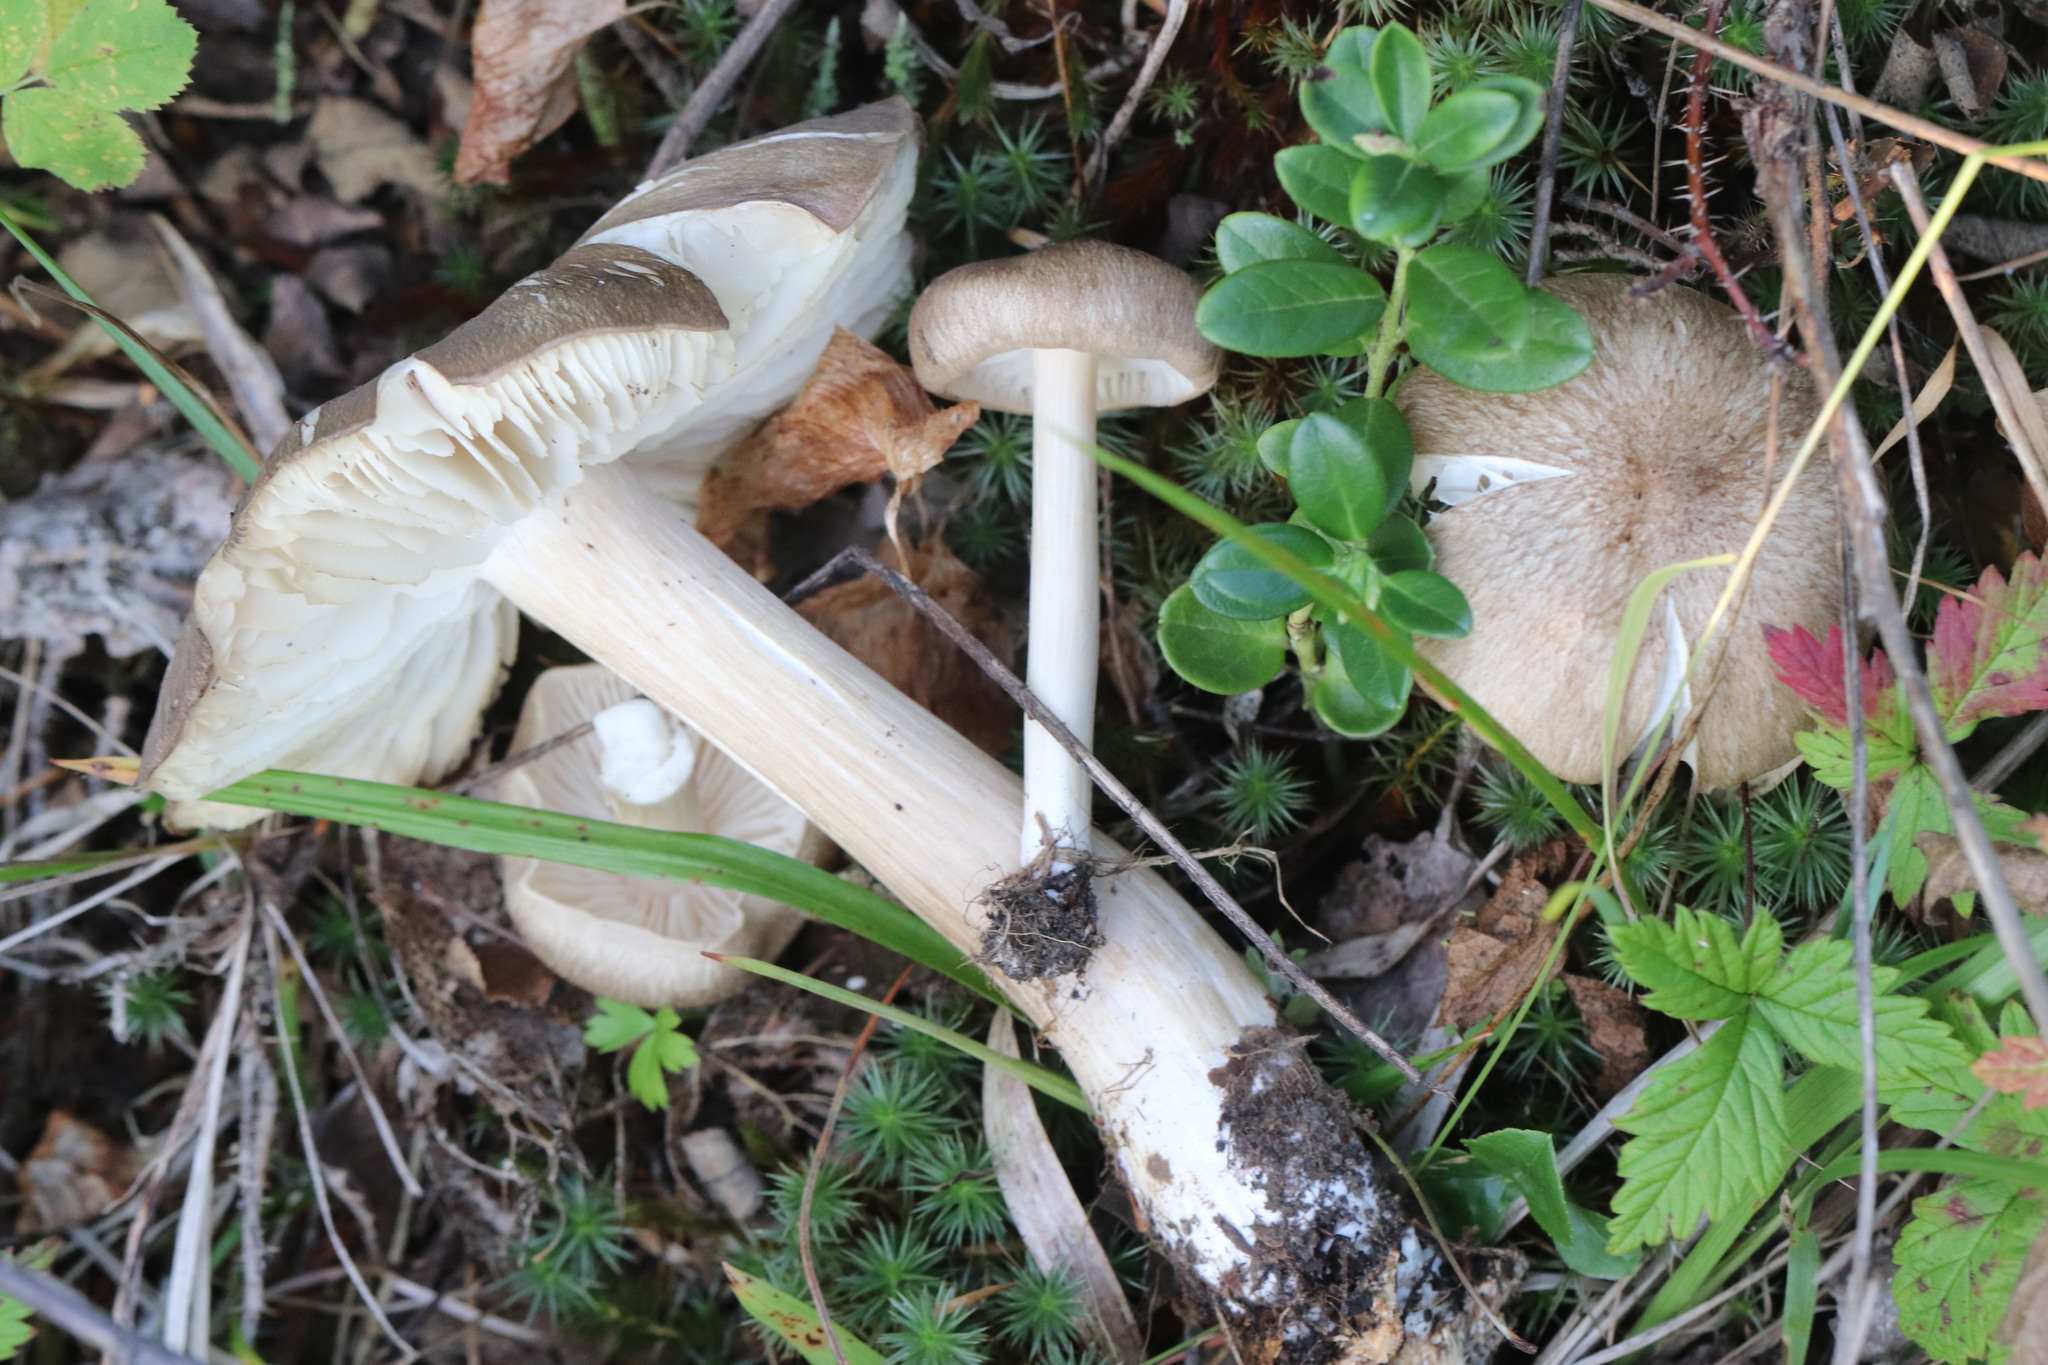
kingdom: Fungi
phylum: Basidiomycota
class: Agaricomycetes
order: Agaricales
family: Tricholomataceae
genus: Megacollybia
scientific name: Megacollybia platyphylla
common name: Whitelaced shank
